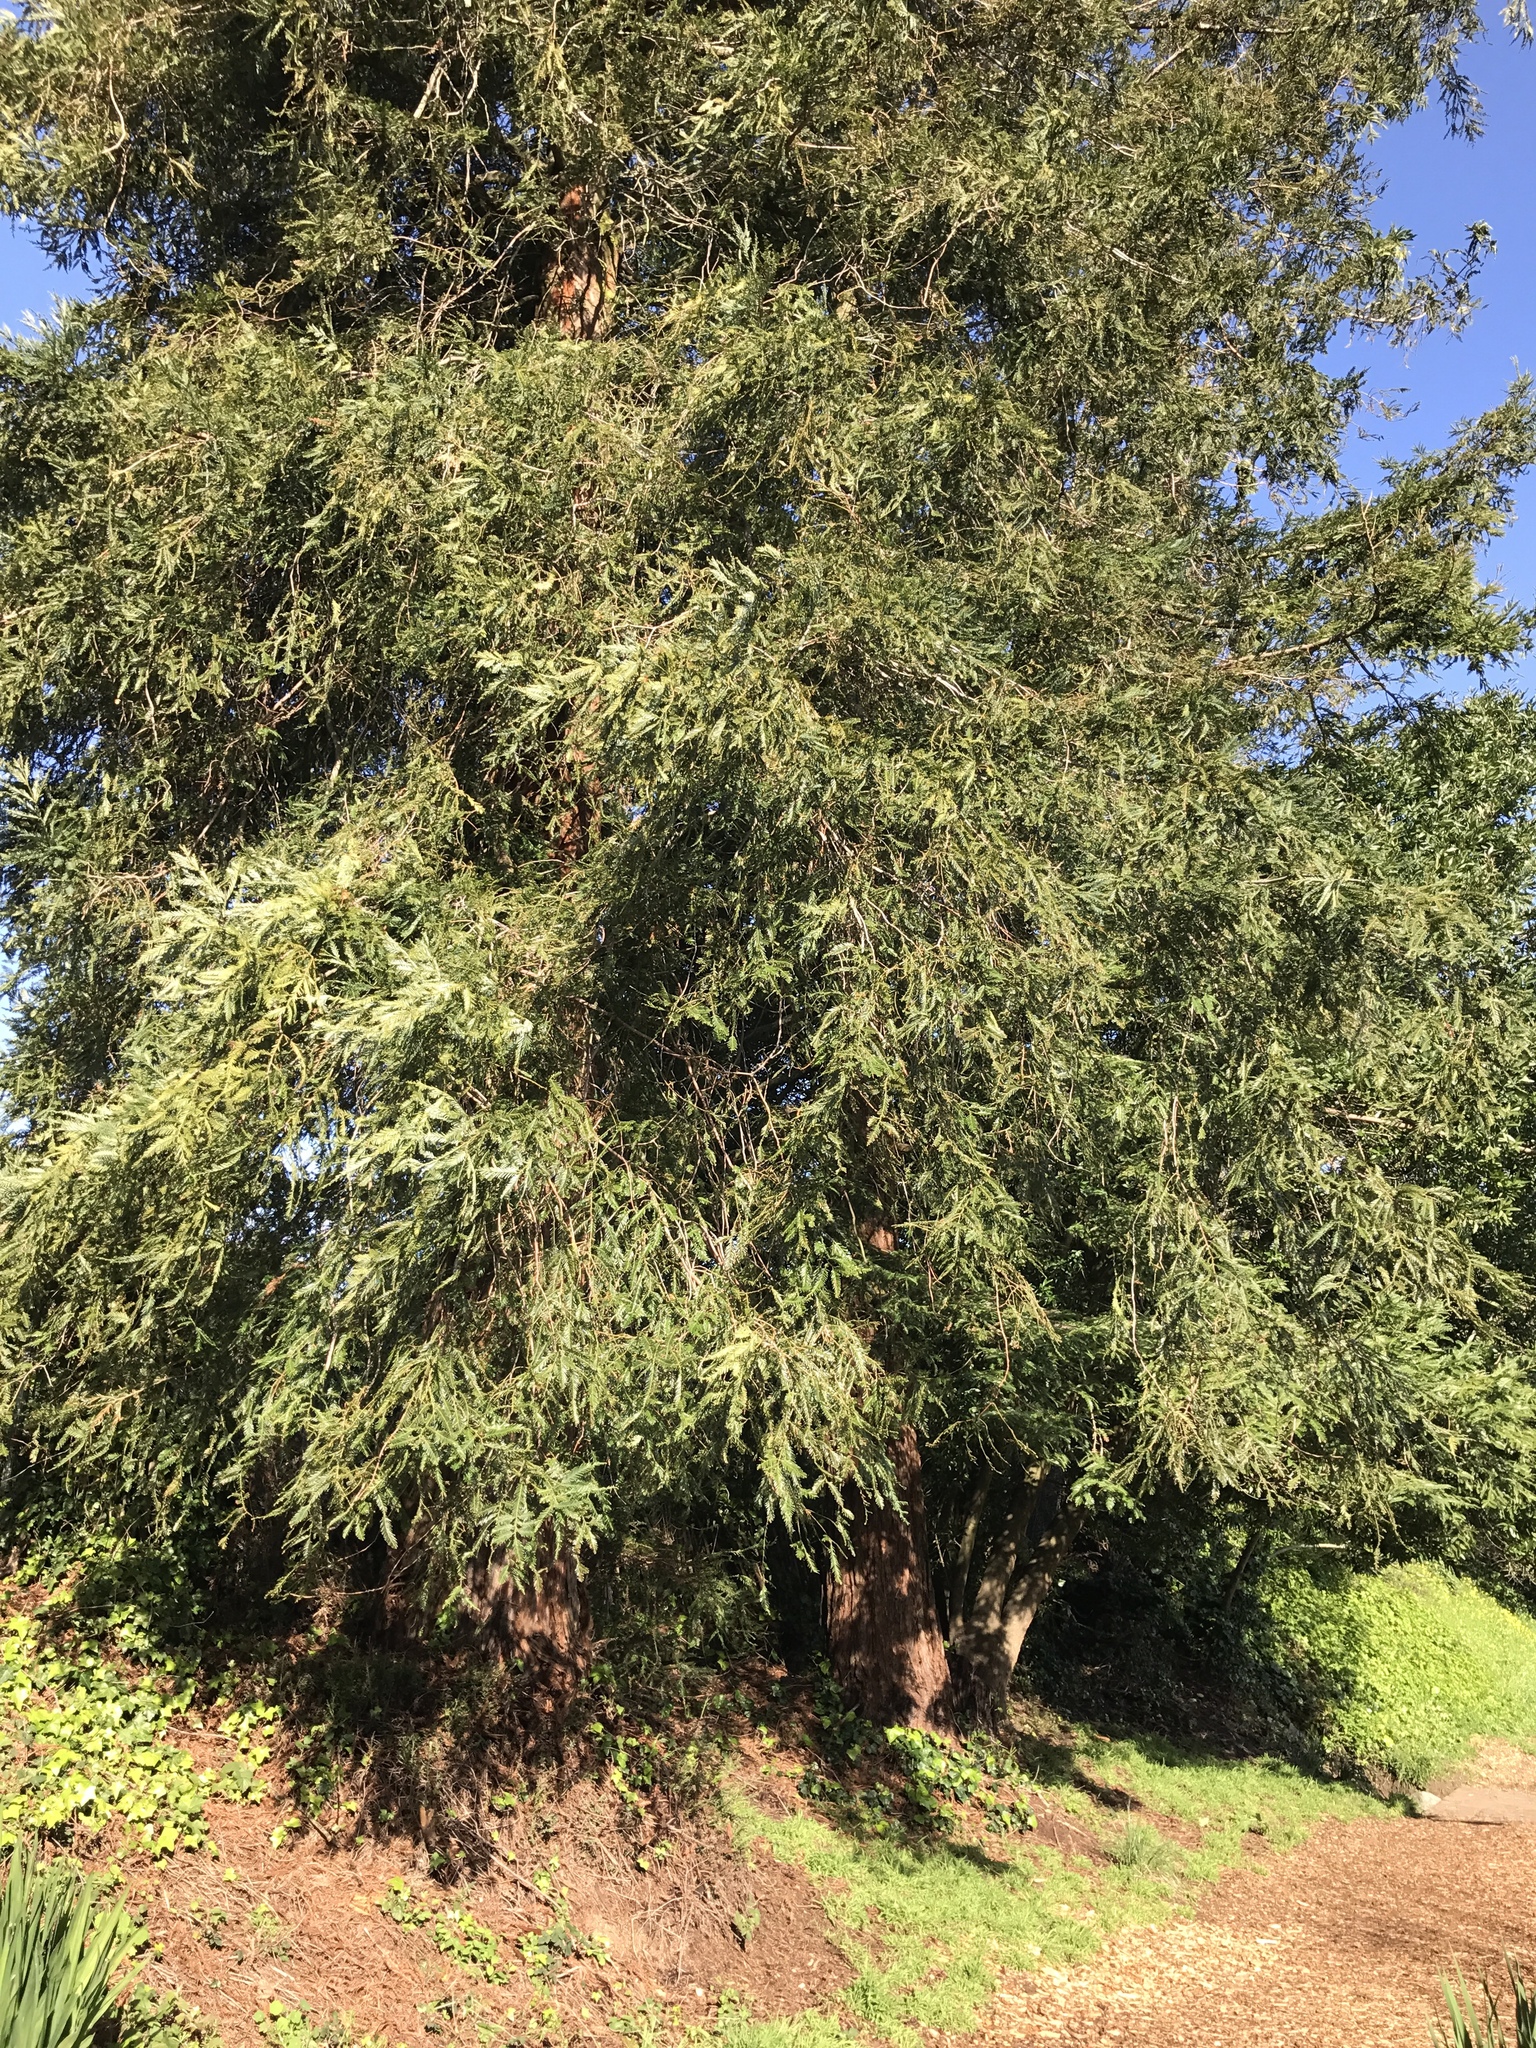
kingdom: Plantae
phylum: Tracheophyta
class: Pinopsida
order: Pinales
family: Cupressaceae
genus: Sequoia
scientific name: Sequoia sempervirens
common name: Coast redwood
